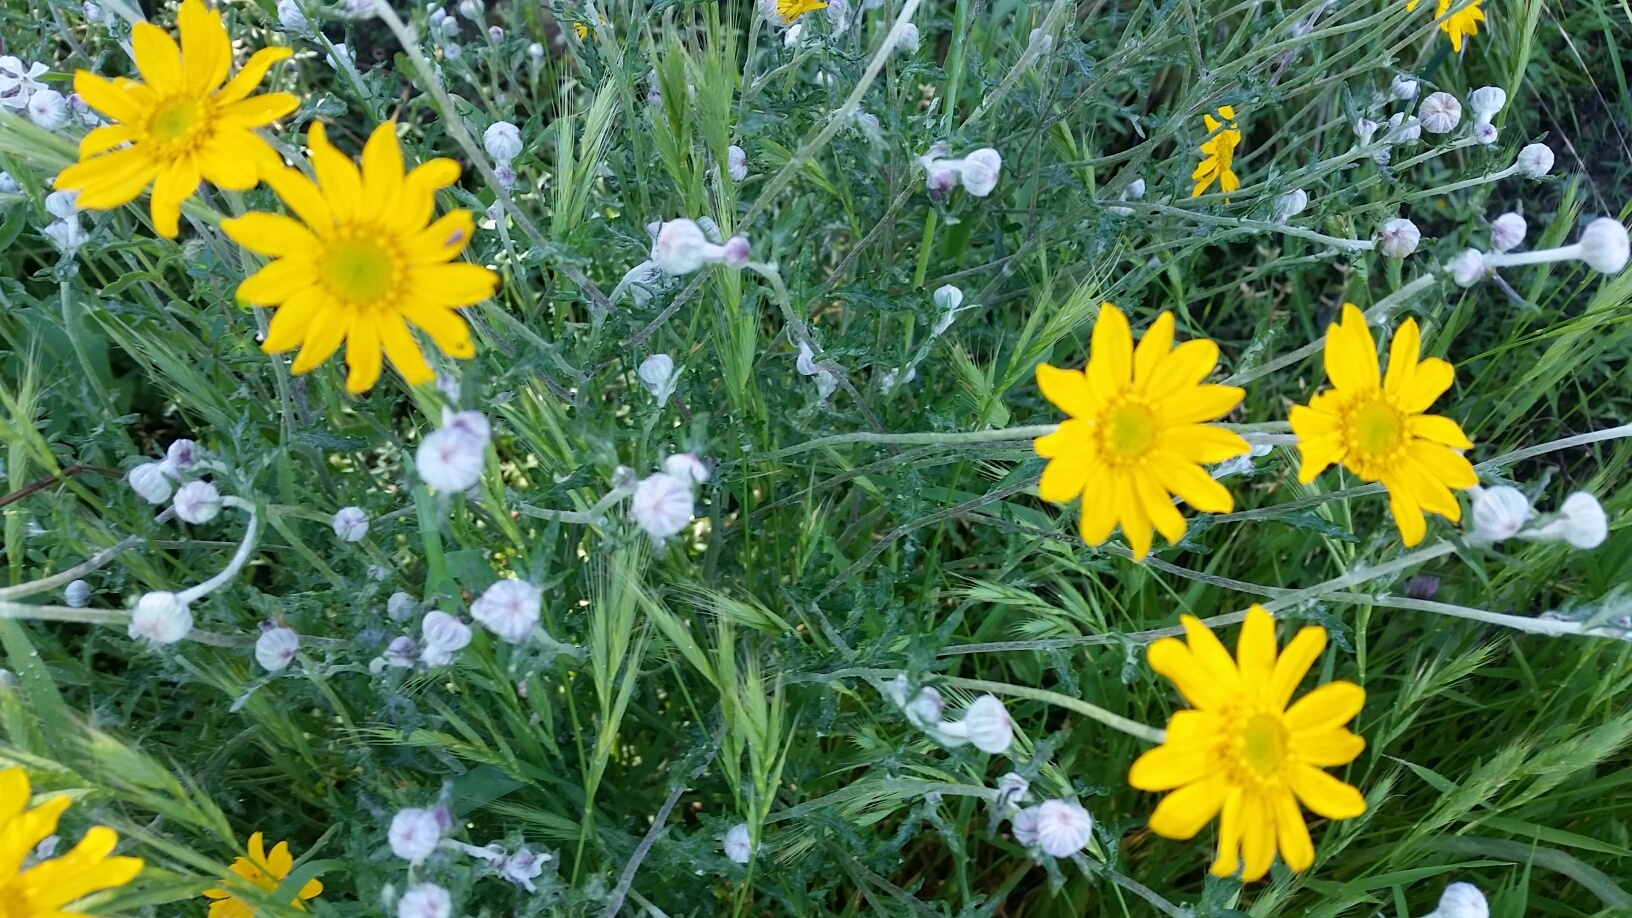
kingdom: Plantae
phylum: Tracheophyta
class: Magnoliopsida
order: Asterales
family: Asteraceae
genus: Eriophyllum
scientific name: Eriophyllum lanatum
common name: Common woolly-sunflower
